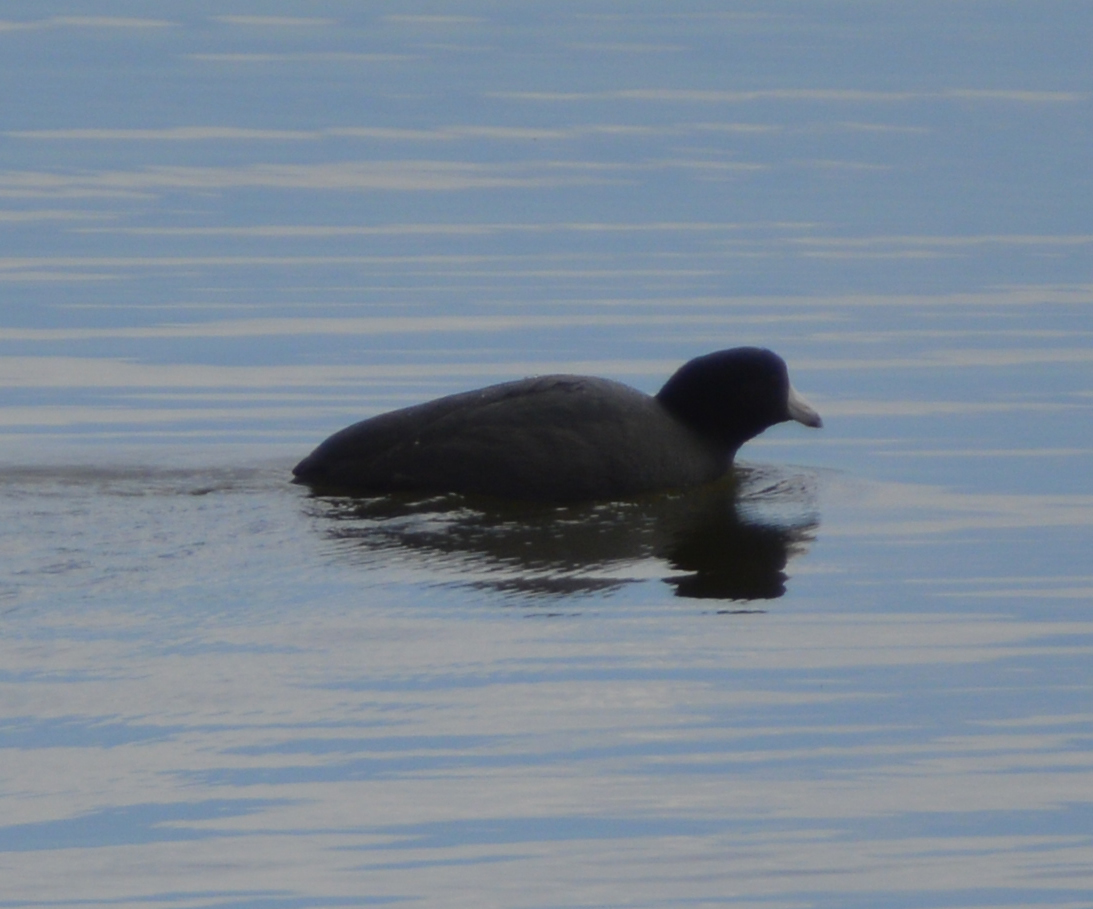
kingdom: Animalia
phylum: Chordata
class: Aves
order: Gruiformes
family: Rallidae
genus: Fulica
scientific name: Fulica americana
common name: American coot
